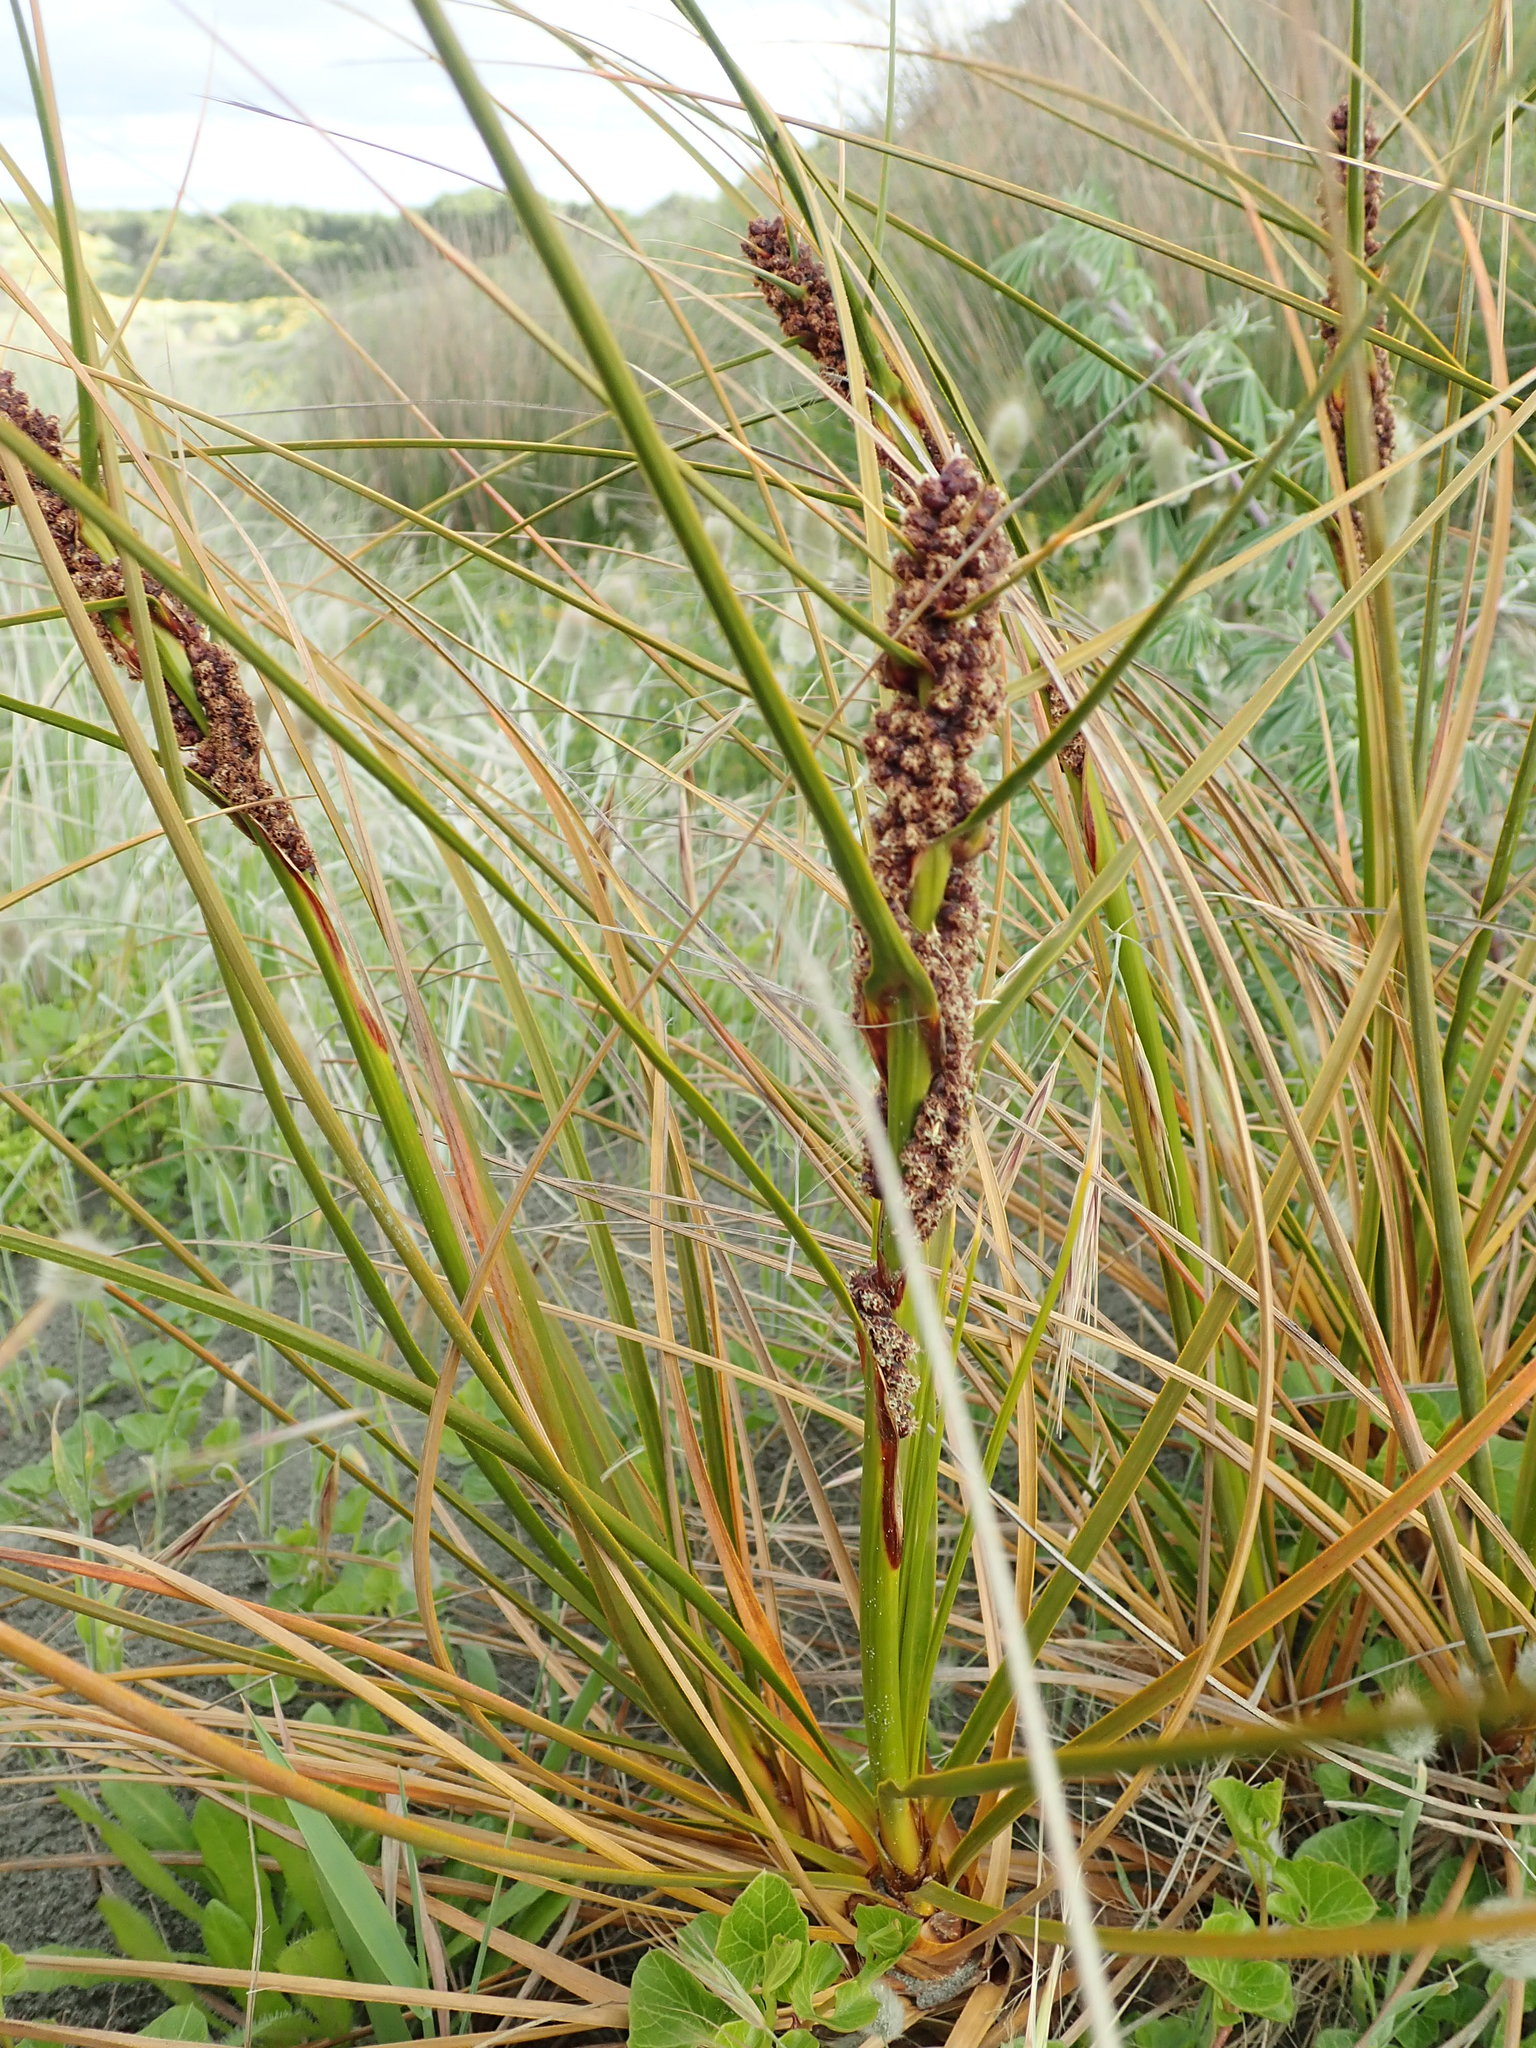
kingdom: Plantae
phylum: Tracheophyta
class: Liliopsida
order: Poales
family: Cyperaceae
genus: Ficinia
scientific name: Ficinia spiralis
